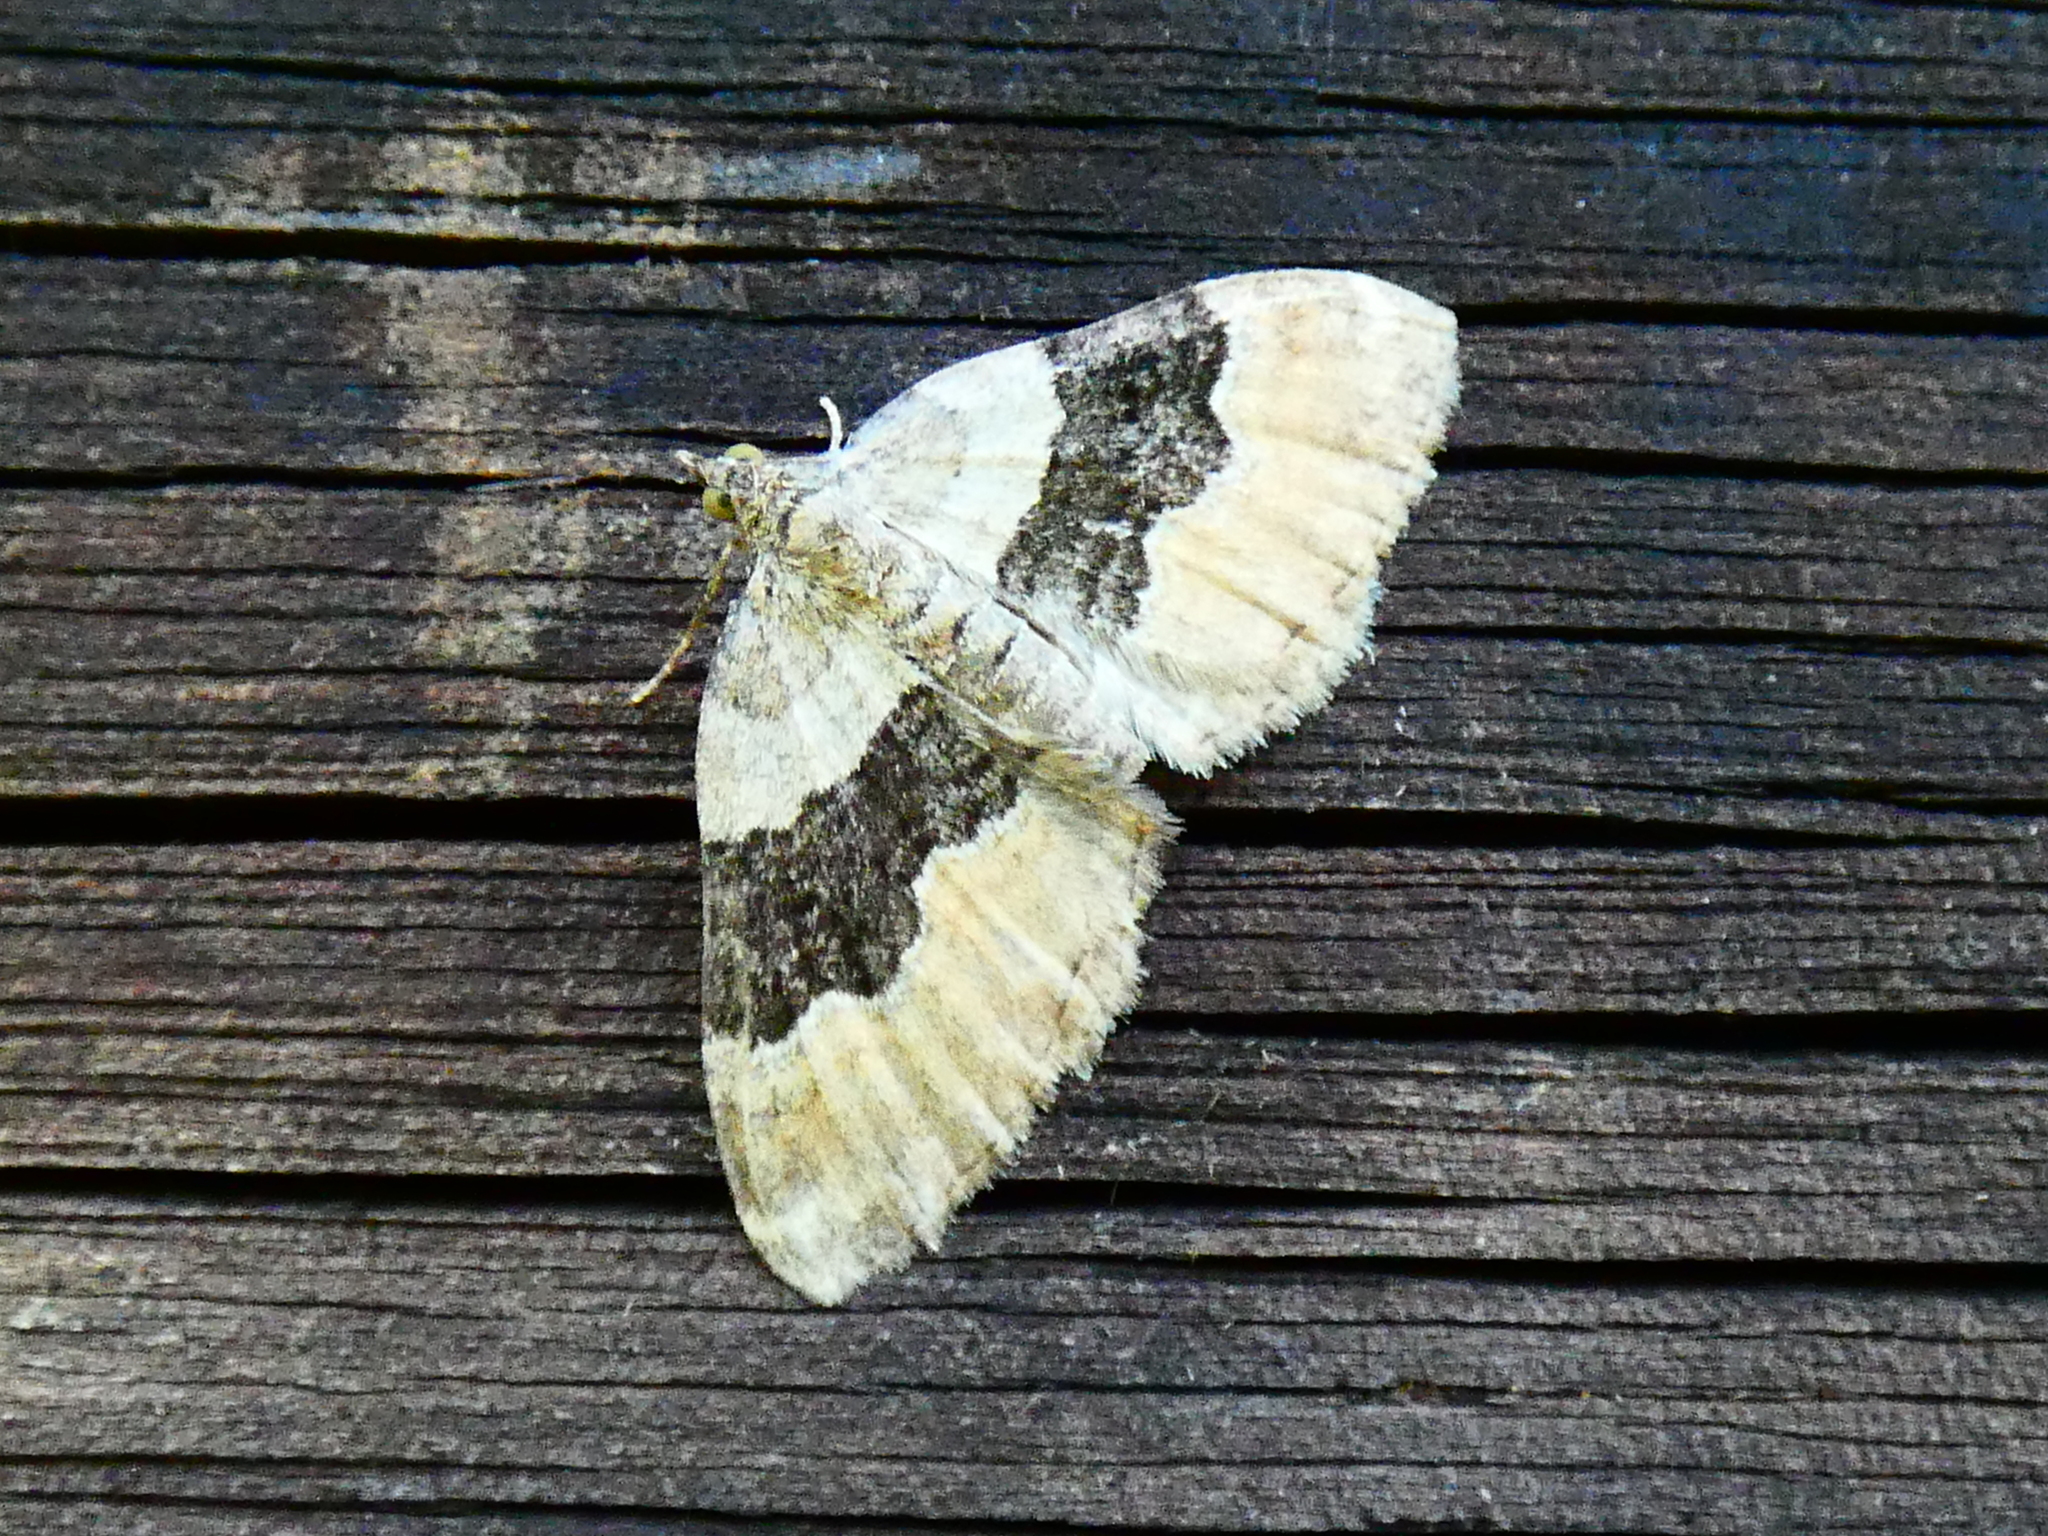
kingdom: Animalia
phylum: Arthropoda
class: Insecta
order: Lepidoptera
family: Geometridae
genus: Xanthorhoe
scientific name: Xanthorhoe quadrifasiata
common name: Large twin-spot carpet
